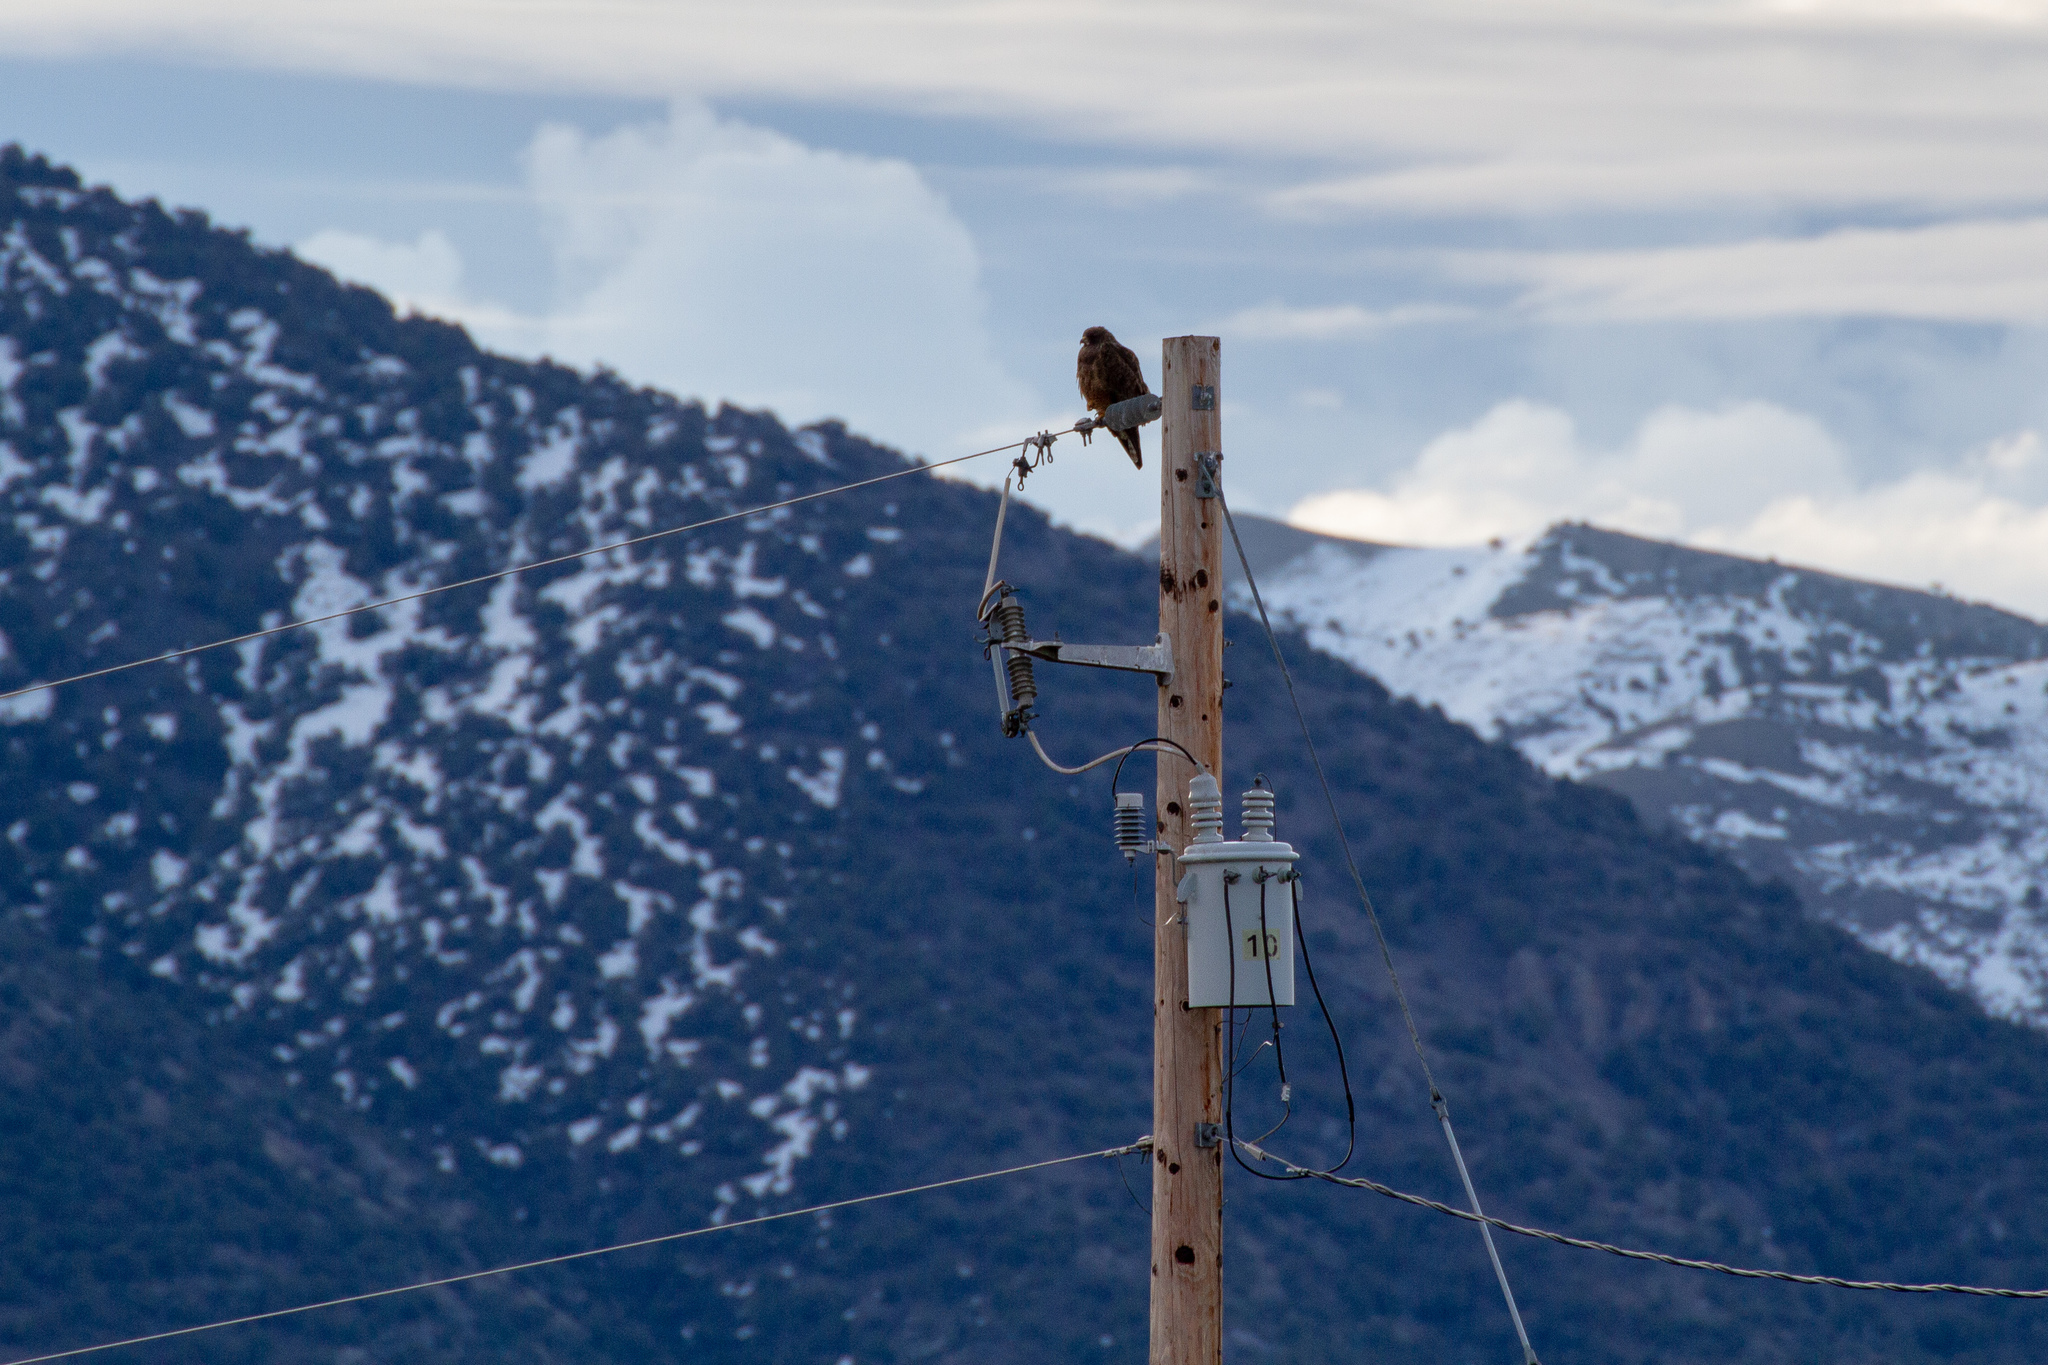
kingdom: Animalia
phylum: Chordata
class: Aves
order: Accipitriformes
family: Accipitridae
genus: Buteo
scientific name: Buteo swainsoni
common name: Swainson's hawk
